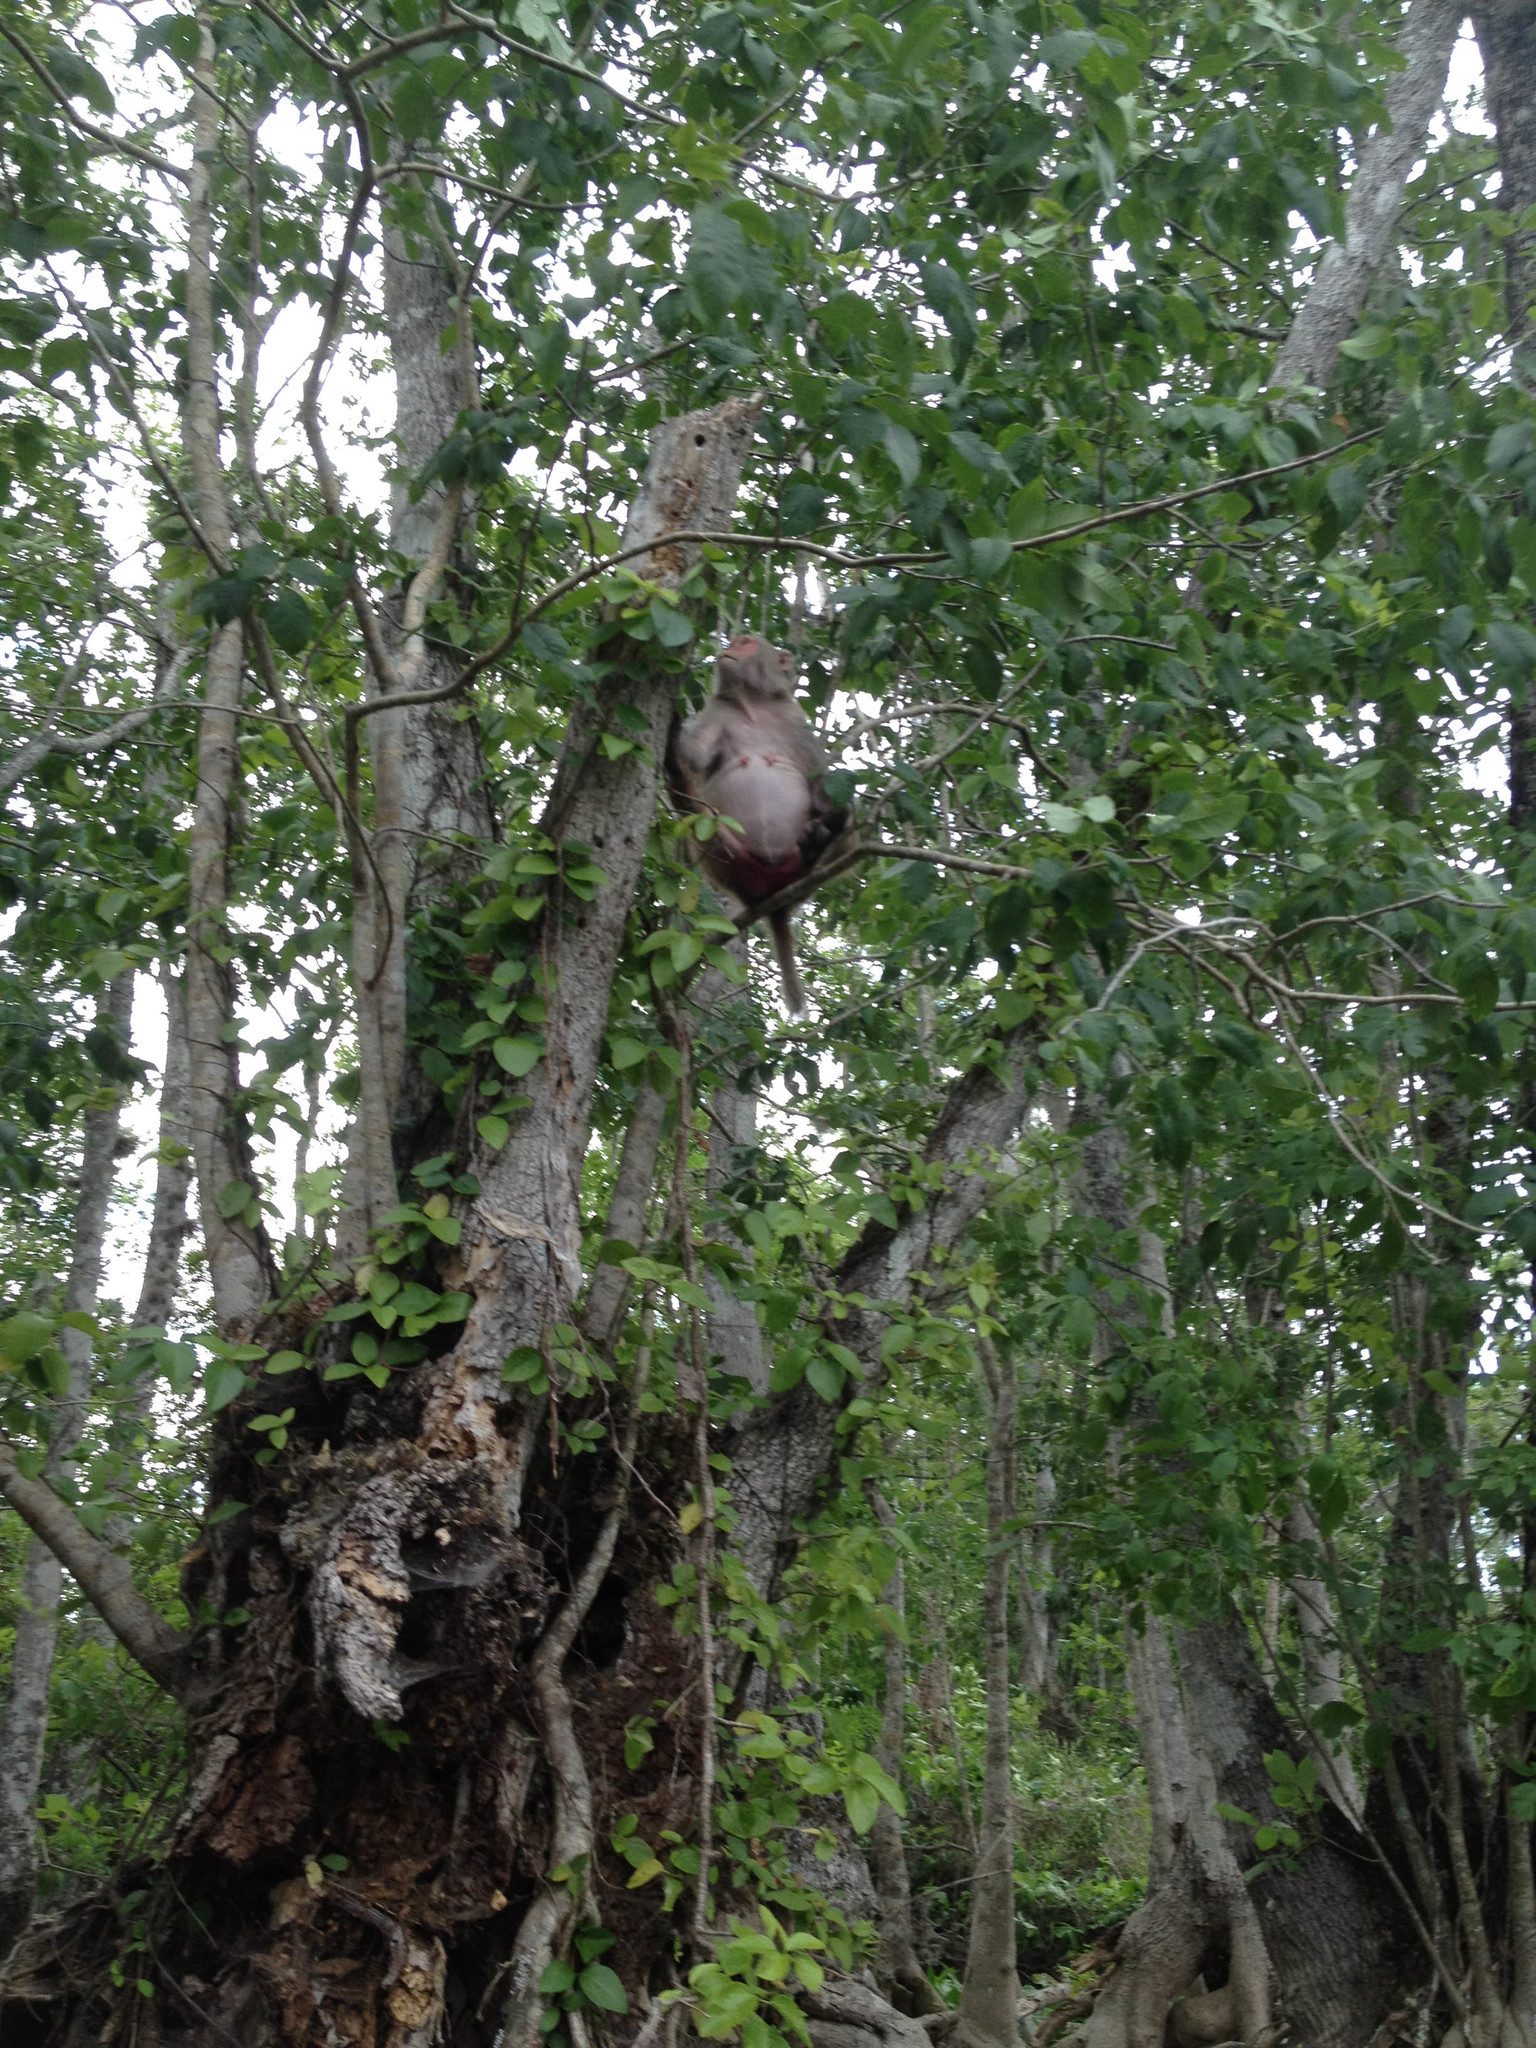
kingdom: Animalia
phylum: Chordata
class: Mammalia
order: Primates
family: Cercopithecidae
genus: Macaca
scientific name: Macaca mulatta
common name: Rhesus monkey
